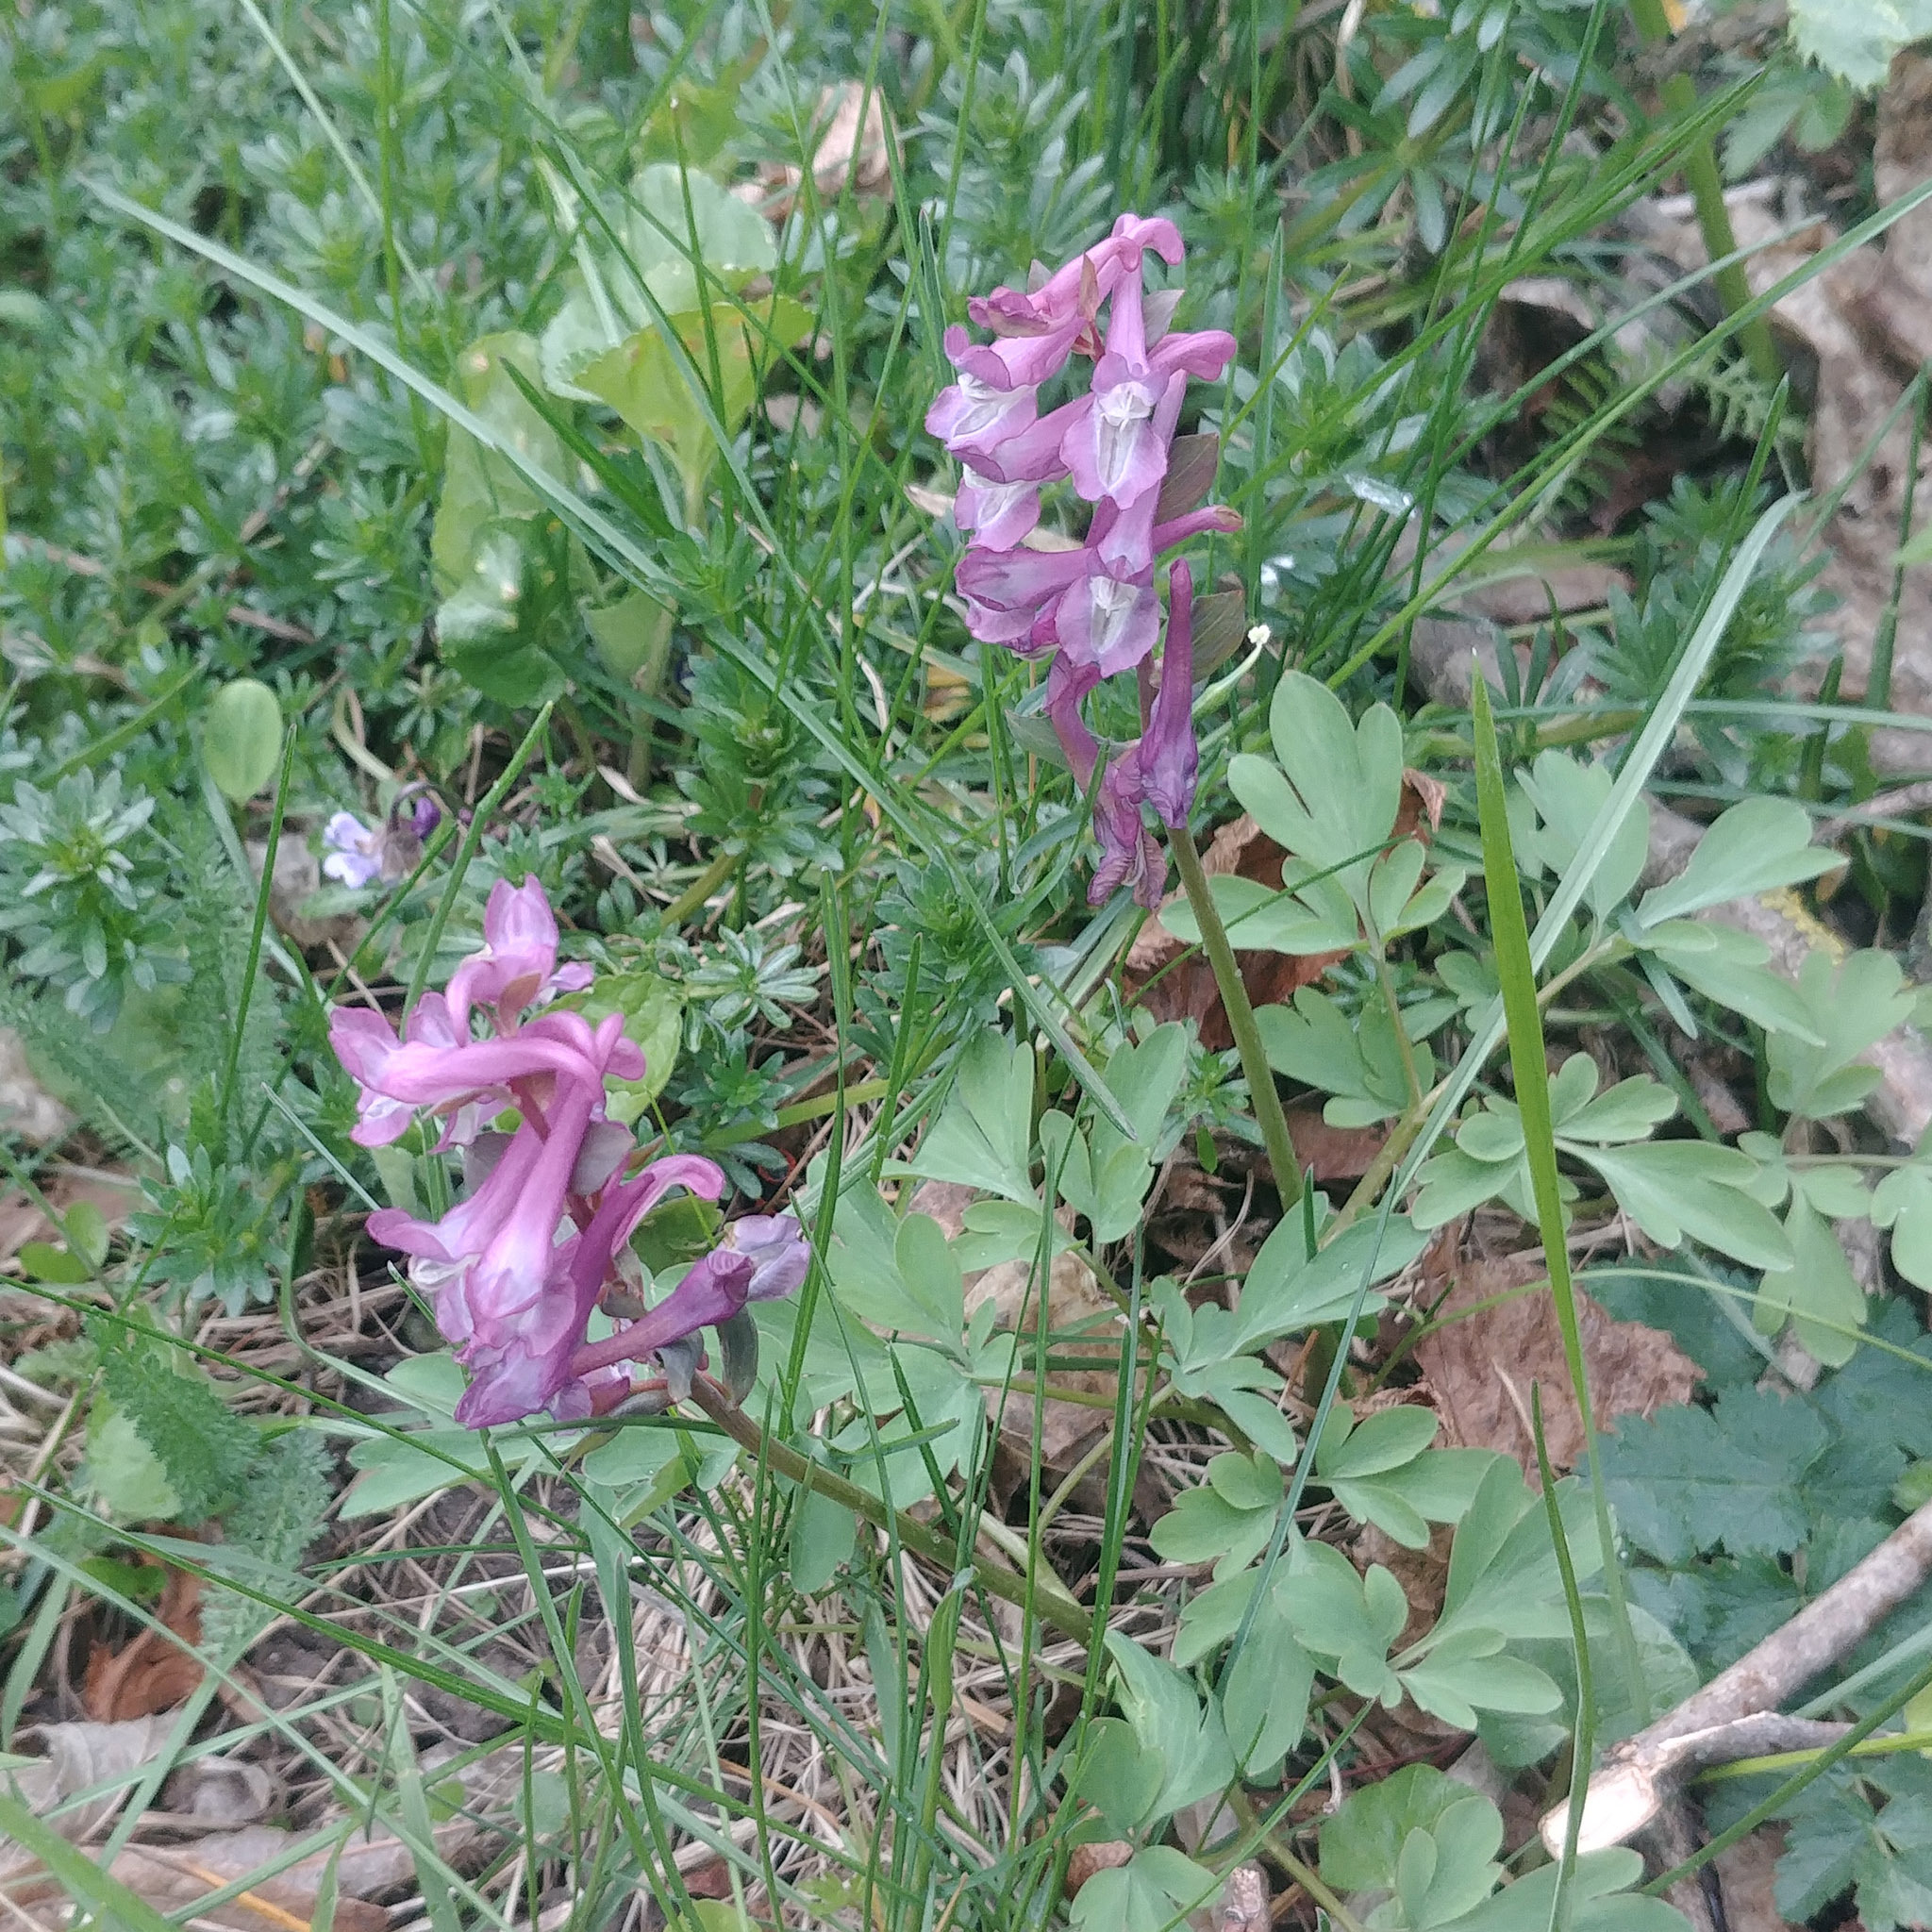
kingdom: Plantae
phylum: Tracheophyta
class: Magnoliopsida
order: Ranunculales
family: Papaveraceae
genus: Corydalis
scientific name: Corydalis cava
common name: Hollowroot
